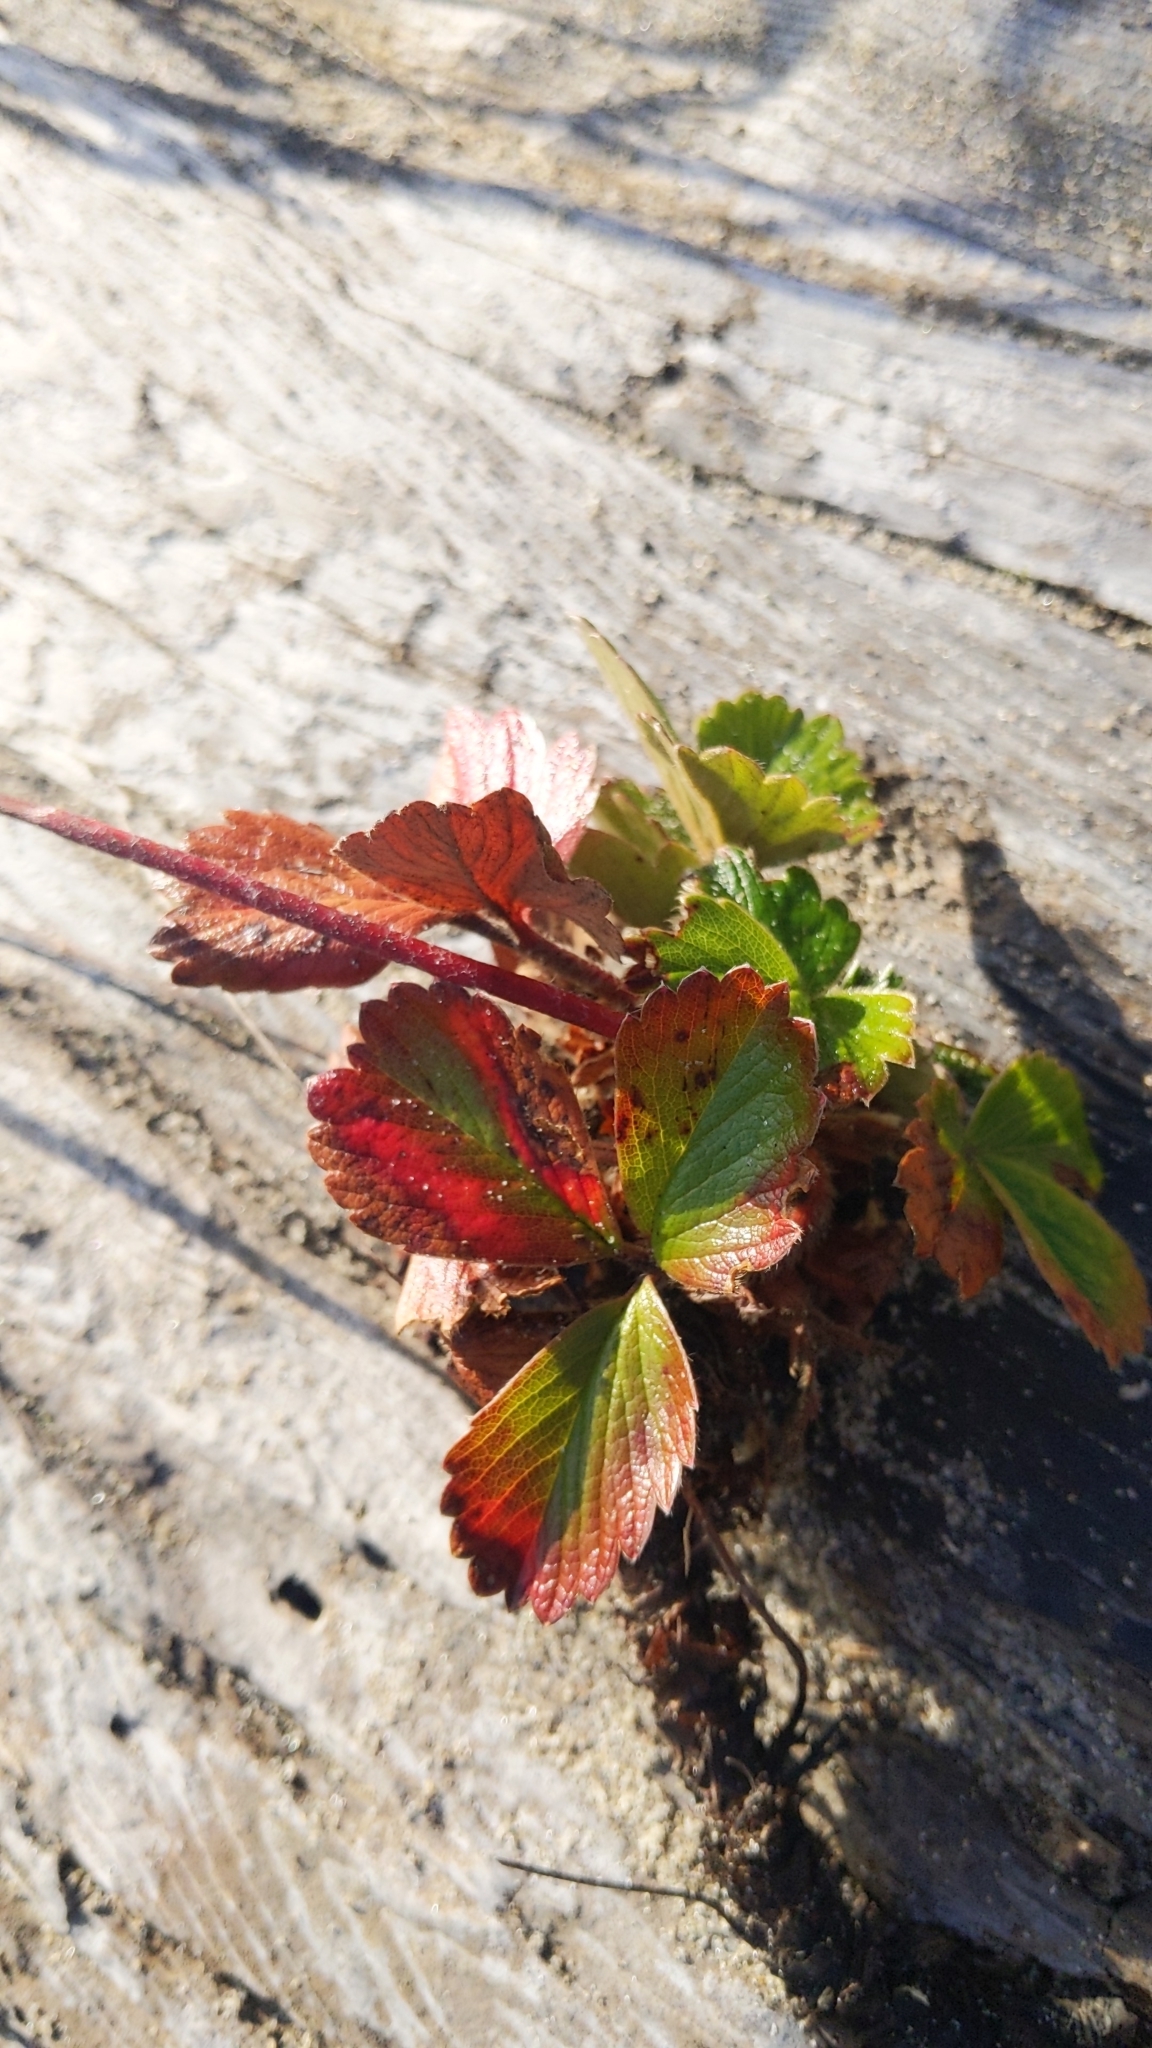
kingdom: Plantae
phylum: Tracheophyta
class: Magnoliopsida
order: Rosales
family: Rosaceae
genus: Fragaria
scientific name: Fragaria chiloensis
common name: Beach strawberry
